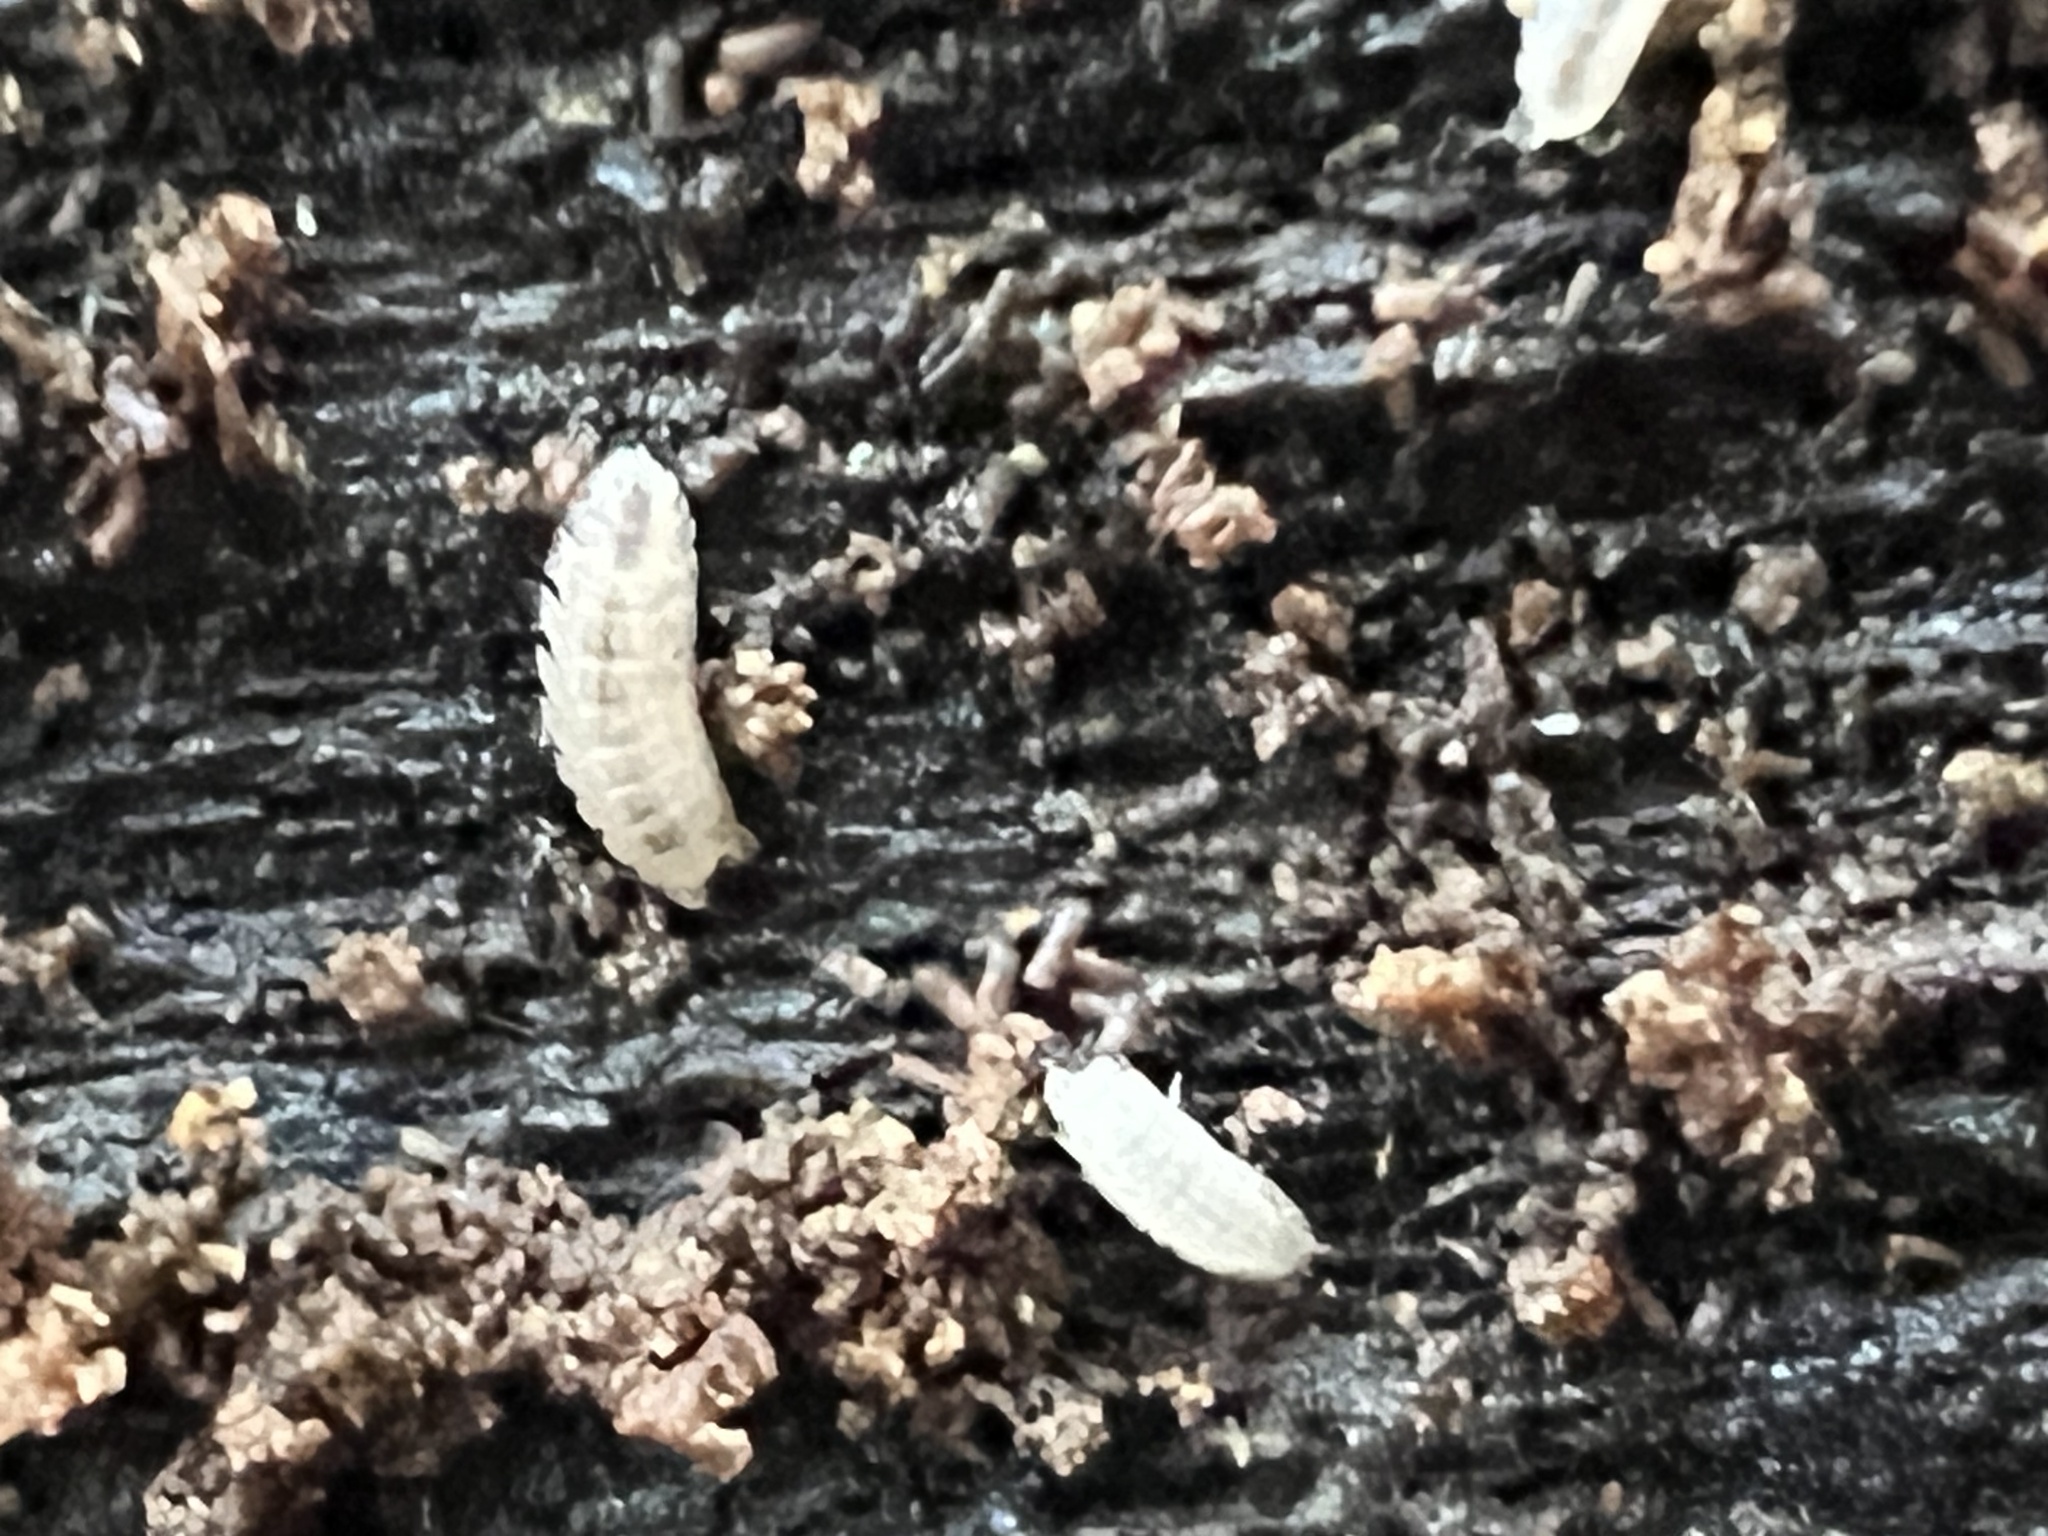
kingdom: Animalia
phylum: Arthropoda
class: Malacostraca
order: Isopoda
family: Trichoniscidae
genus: Haplophthalmus
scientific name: Haplophthalmus danicus
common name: Pillbug
